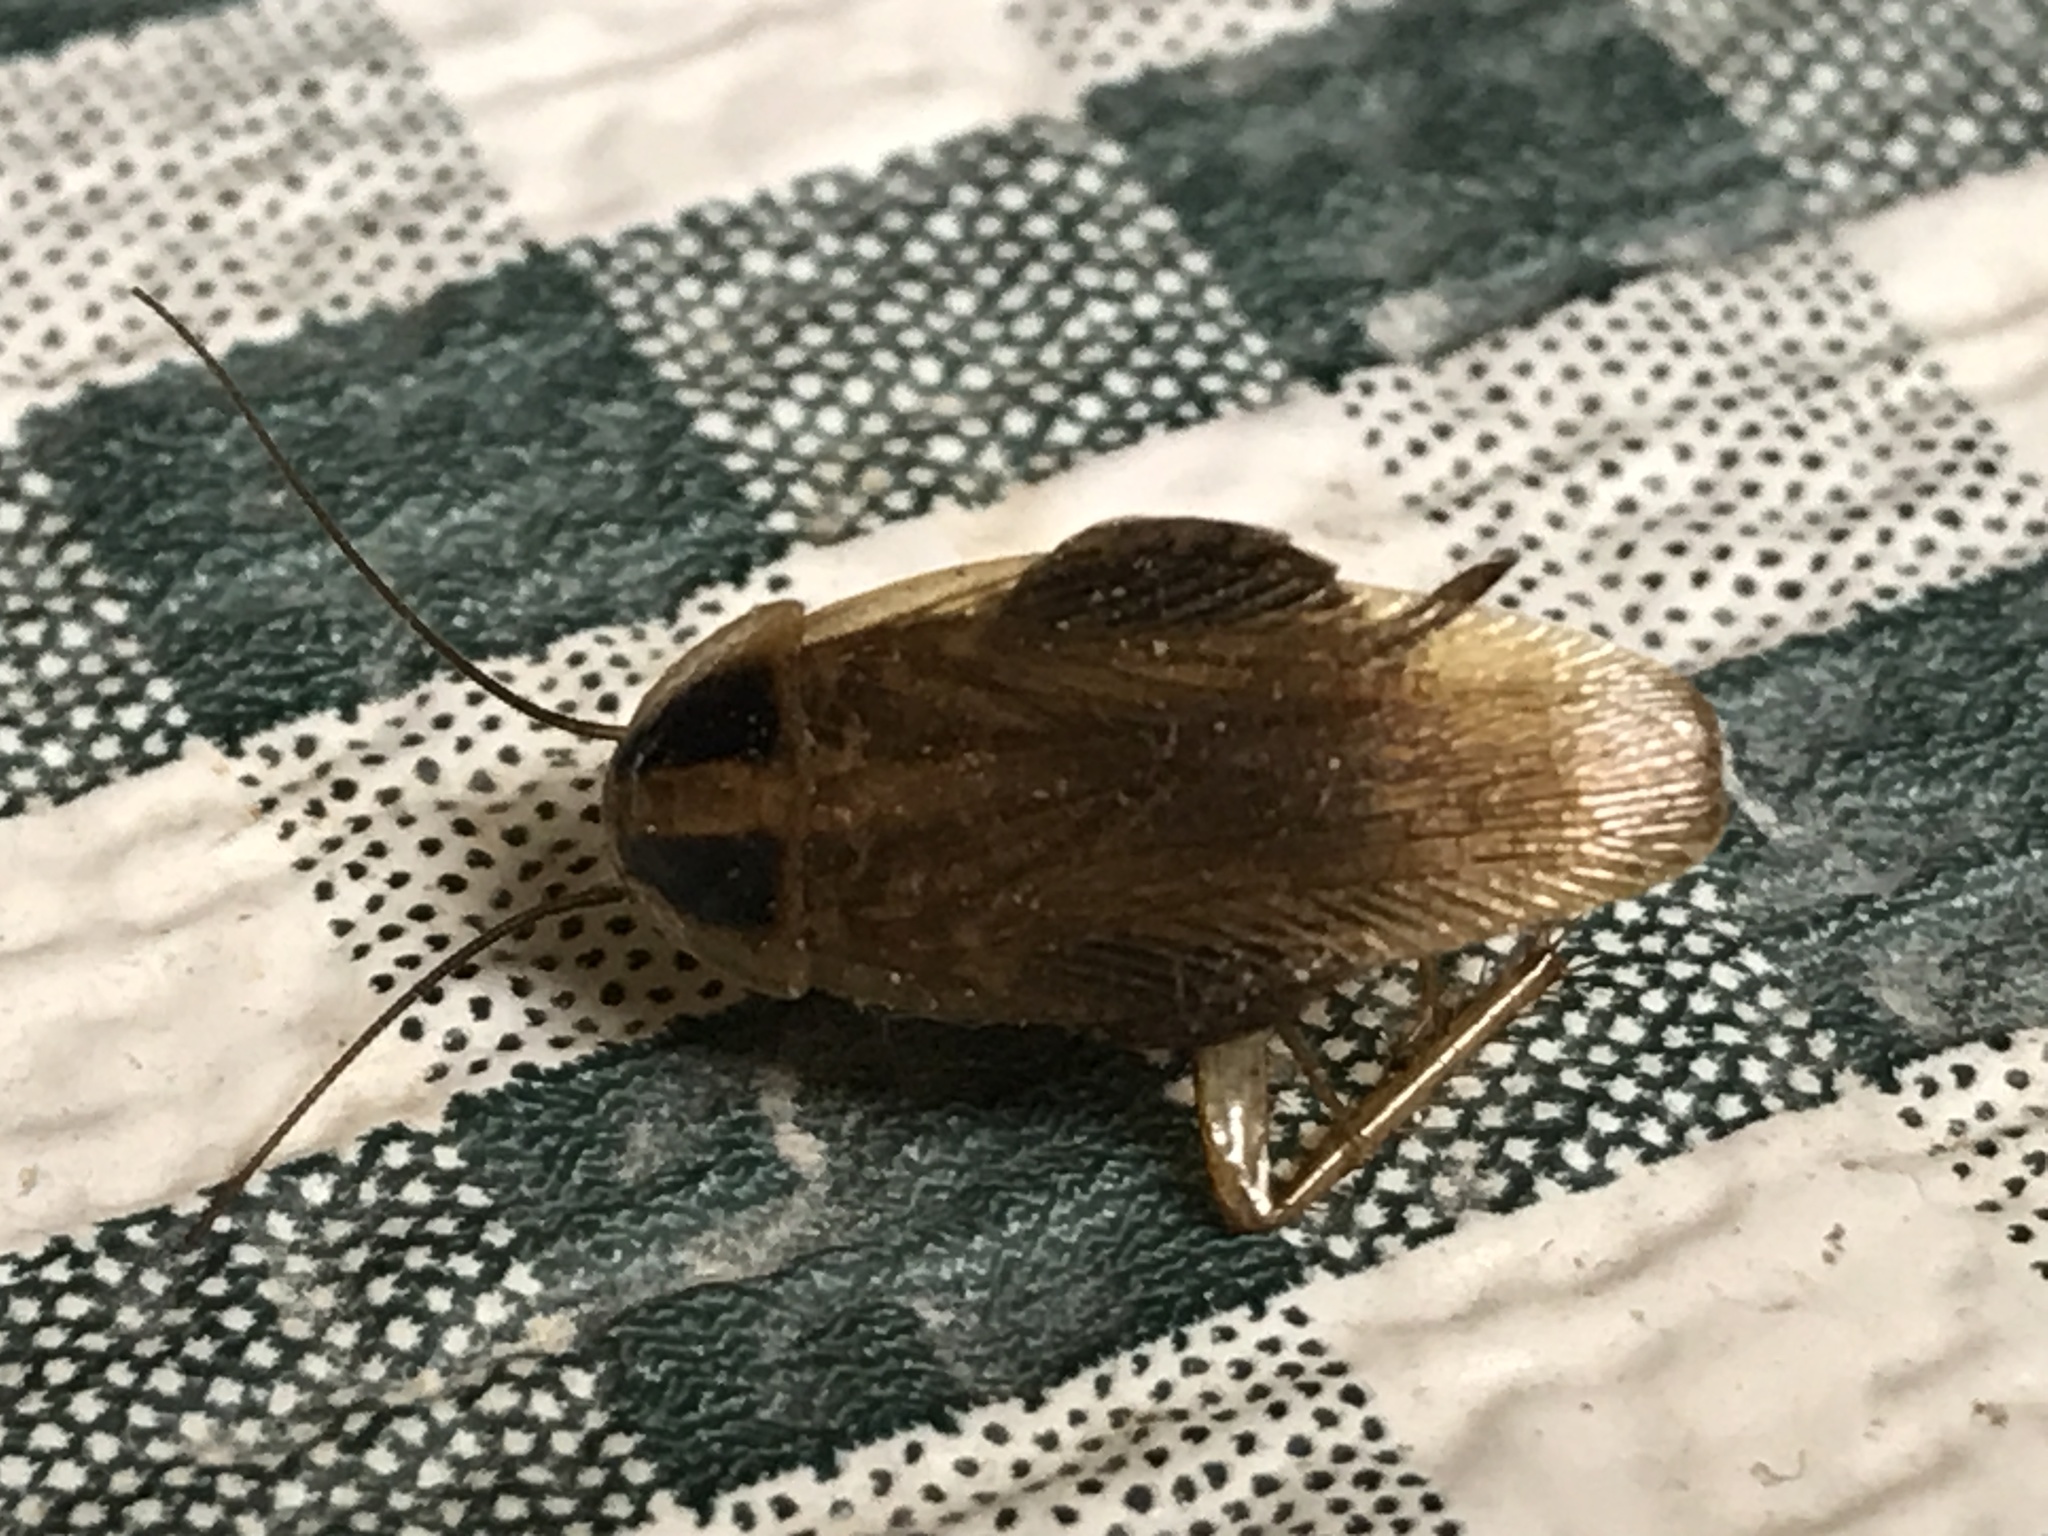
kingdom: Animalia
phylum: Arthropoda
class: Insecta
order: Blattodea
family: Ectobiidae
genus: Blattella
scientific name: Blattella germanica
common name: German cockroach
